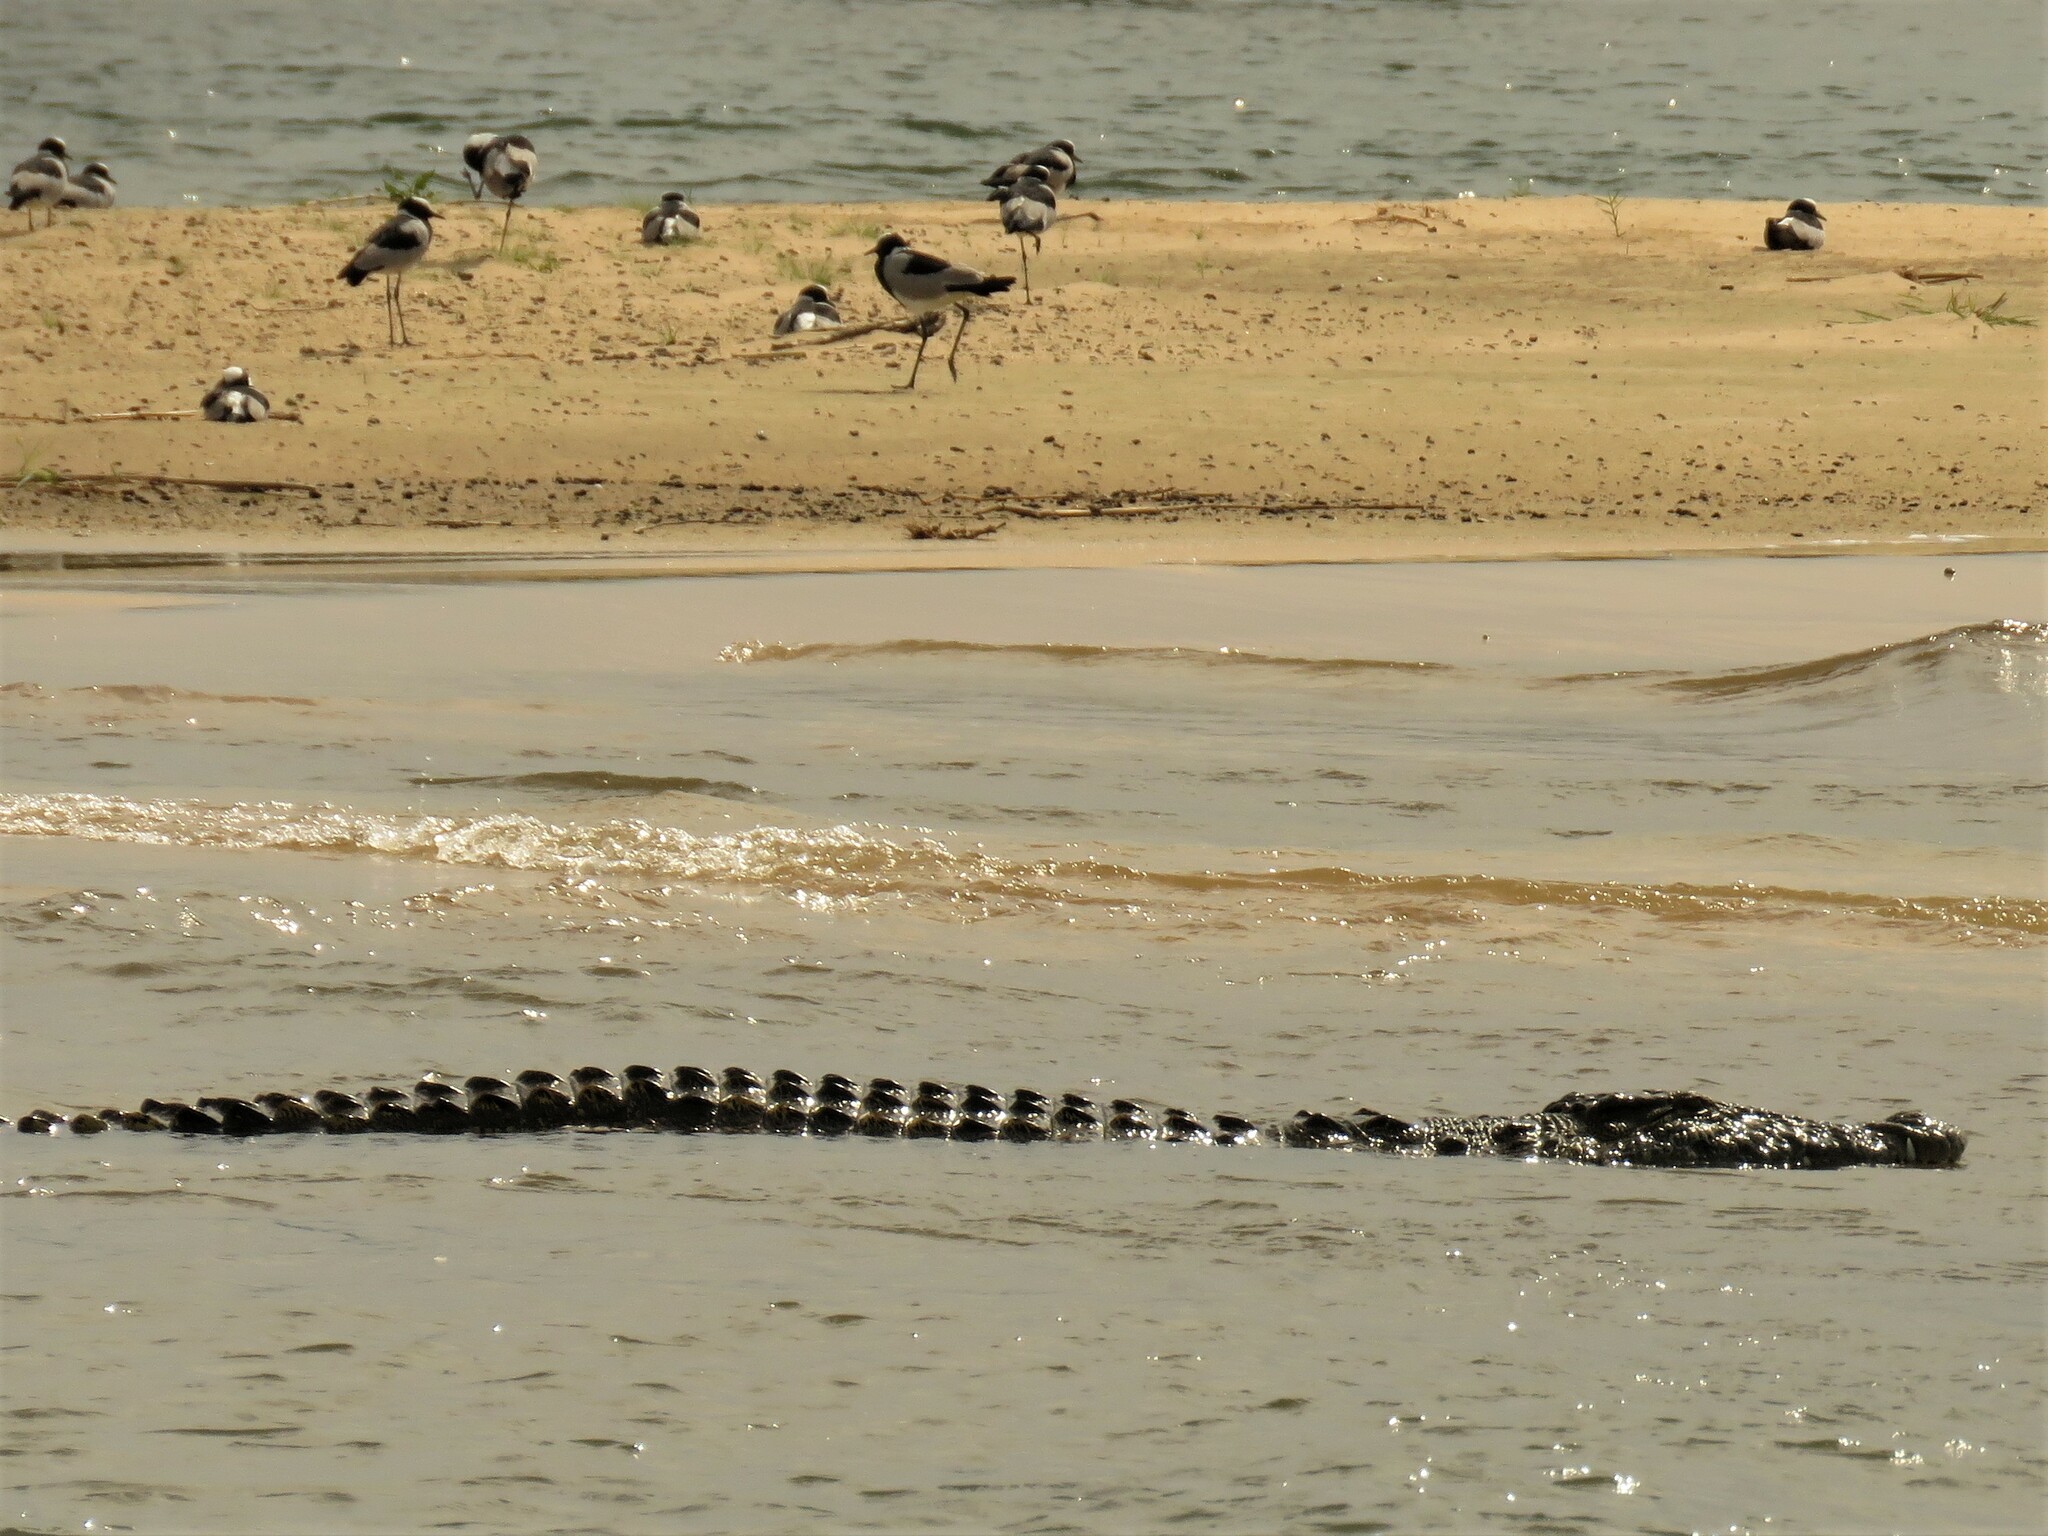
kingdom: Animalia
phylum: Chordata
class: Aves
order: Charadriiformes
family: Charadriidae
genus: Vanellus
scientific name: Vanellus armatus
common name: Blacksmith lapwing
